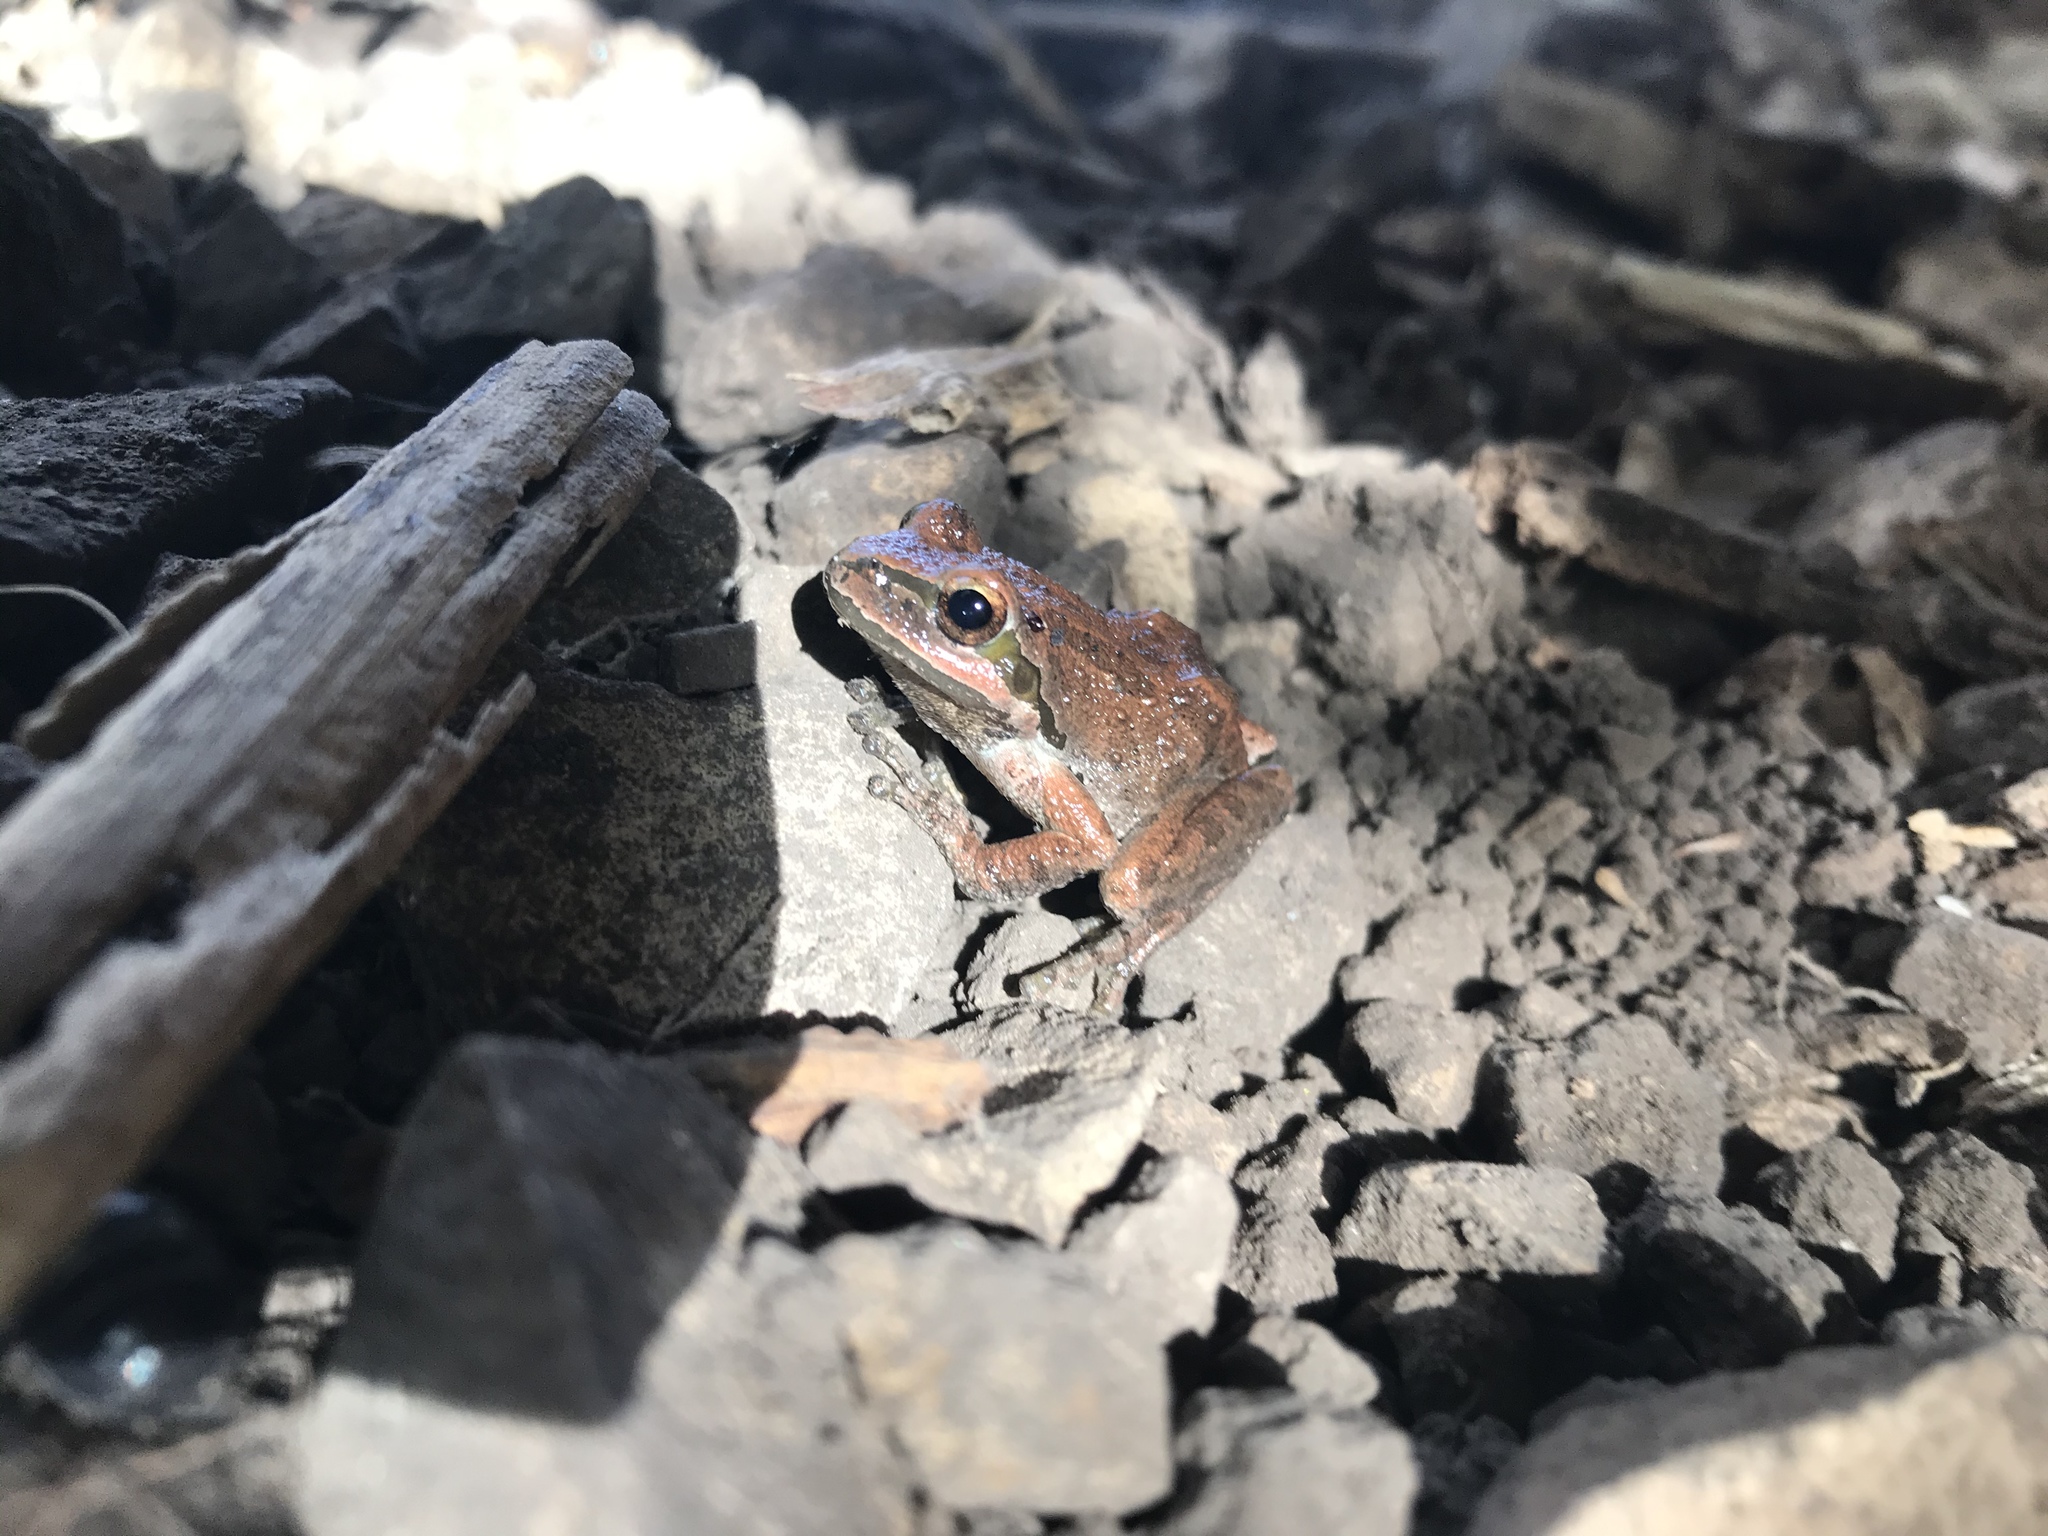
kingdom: Animalia
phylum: Chordata
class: Amphibia
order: Anura
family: Hylidae
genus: Pseudacris
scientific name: Pseudacris regilla
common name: Pacific chorus frog
